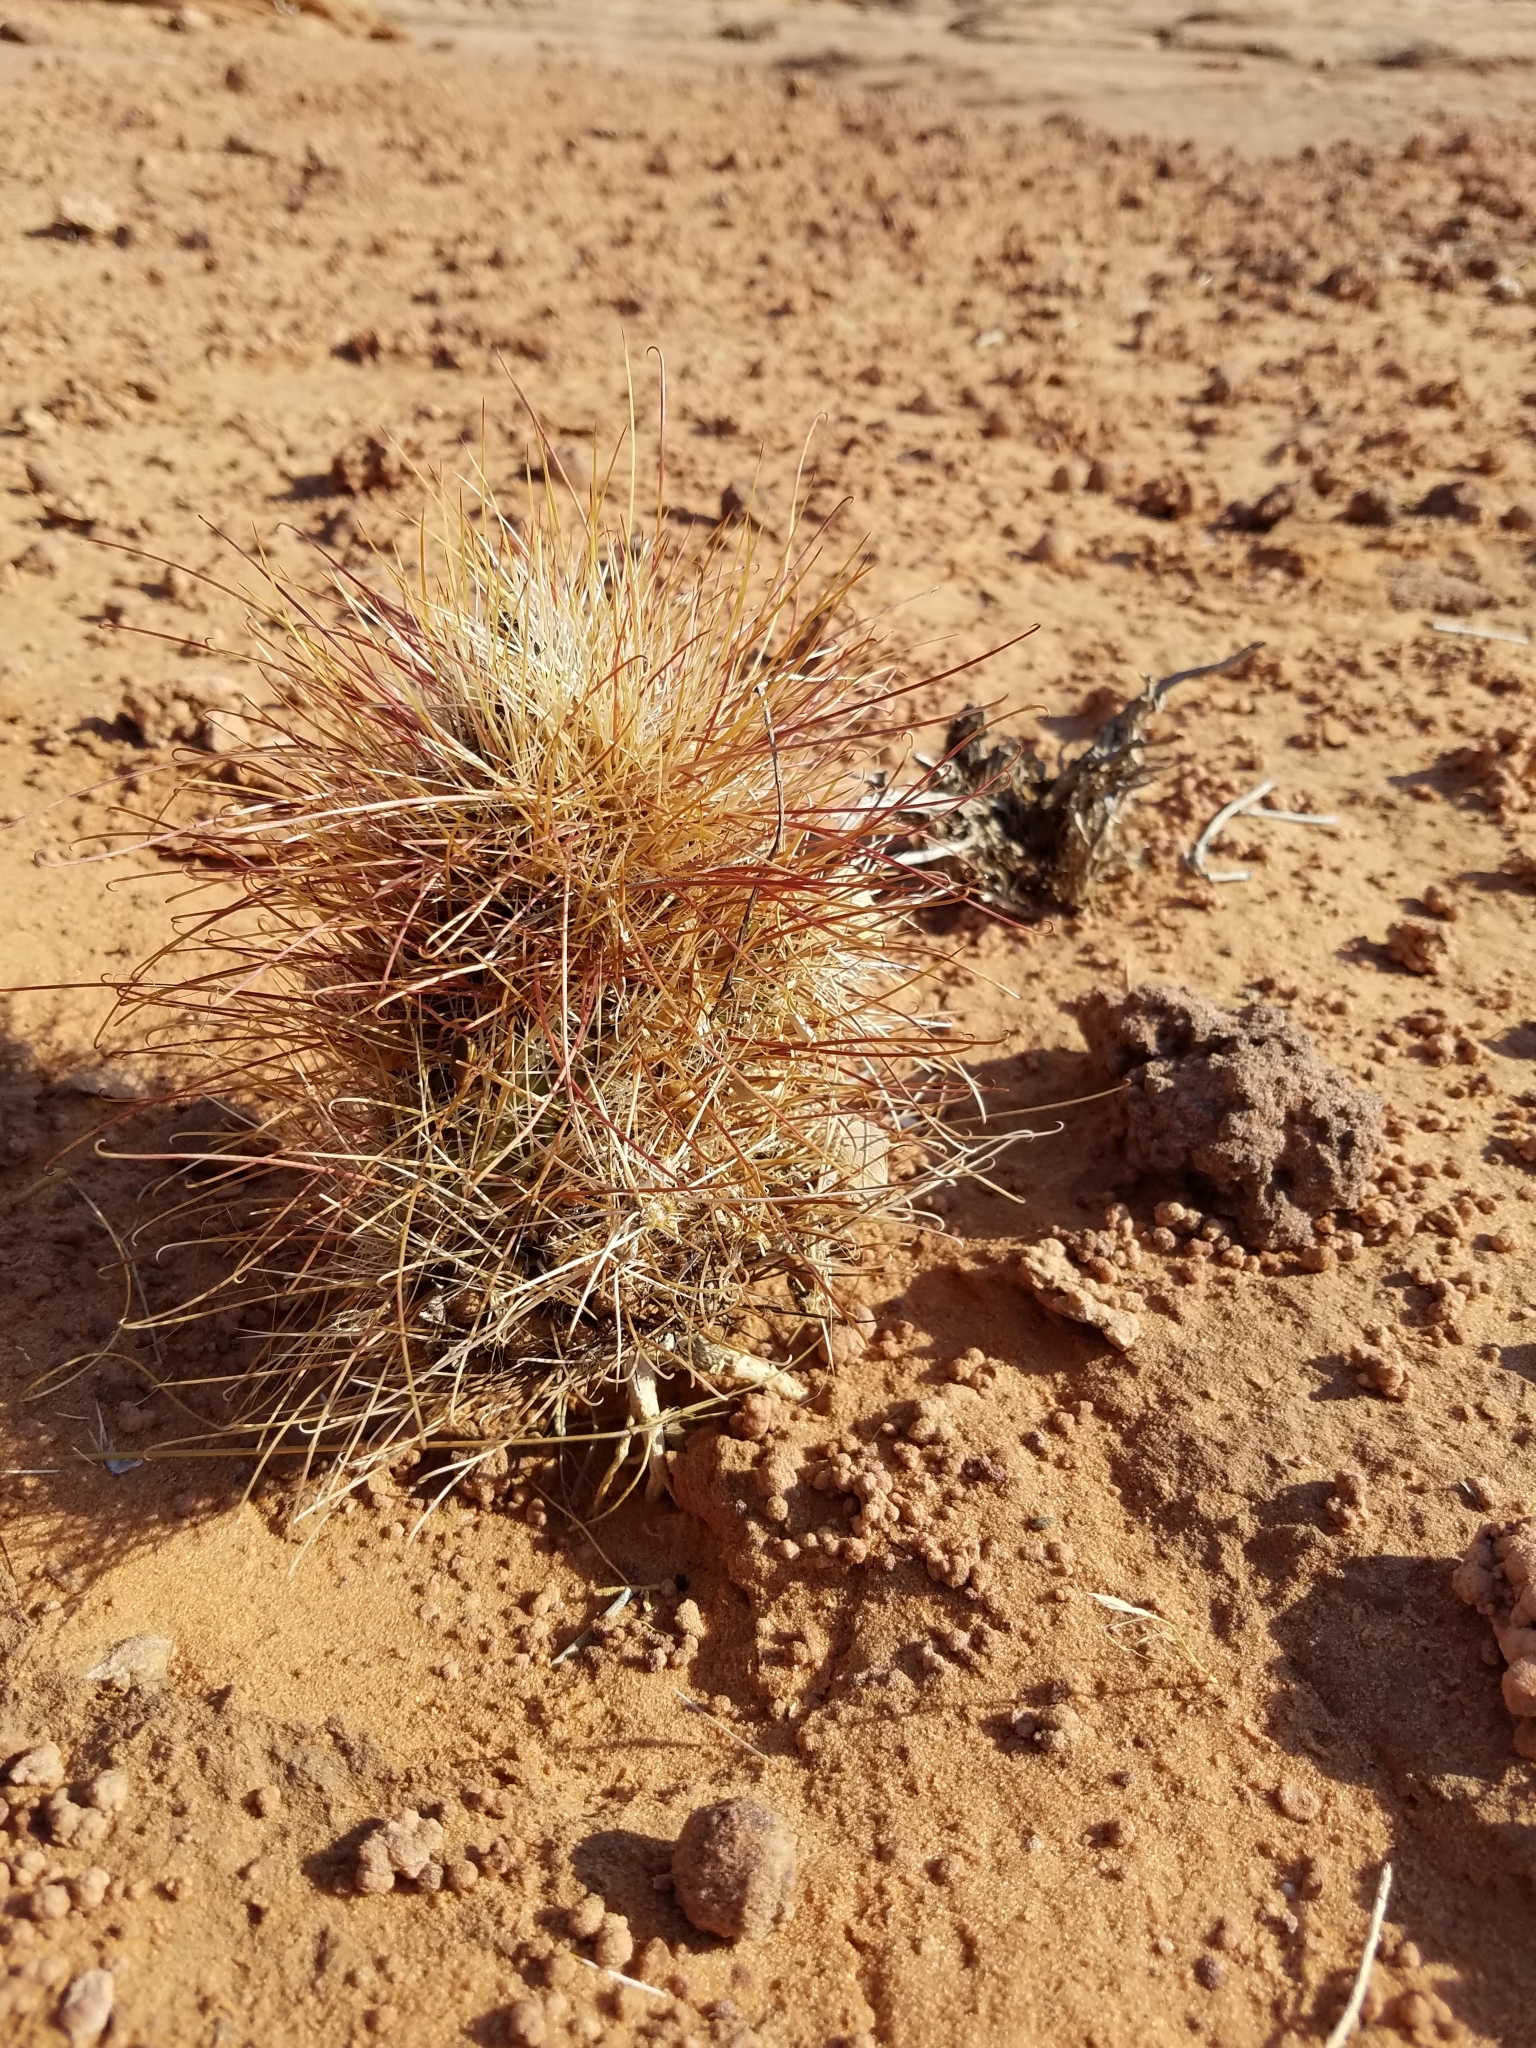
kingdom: Plantae
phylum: Tracheophyta
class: Magnoliopsida
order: Caryophyllales
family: Cactaceae
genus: Sclerocactus
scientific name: Sclerocactus parviflorus
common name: Small-flower fishhook cactus
